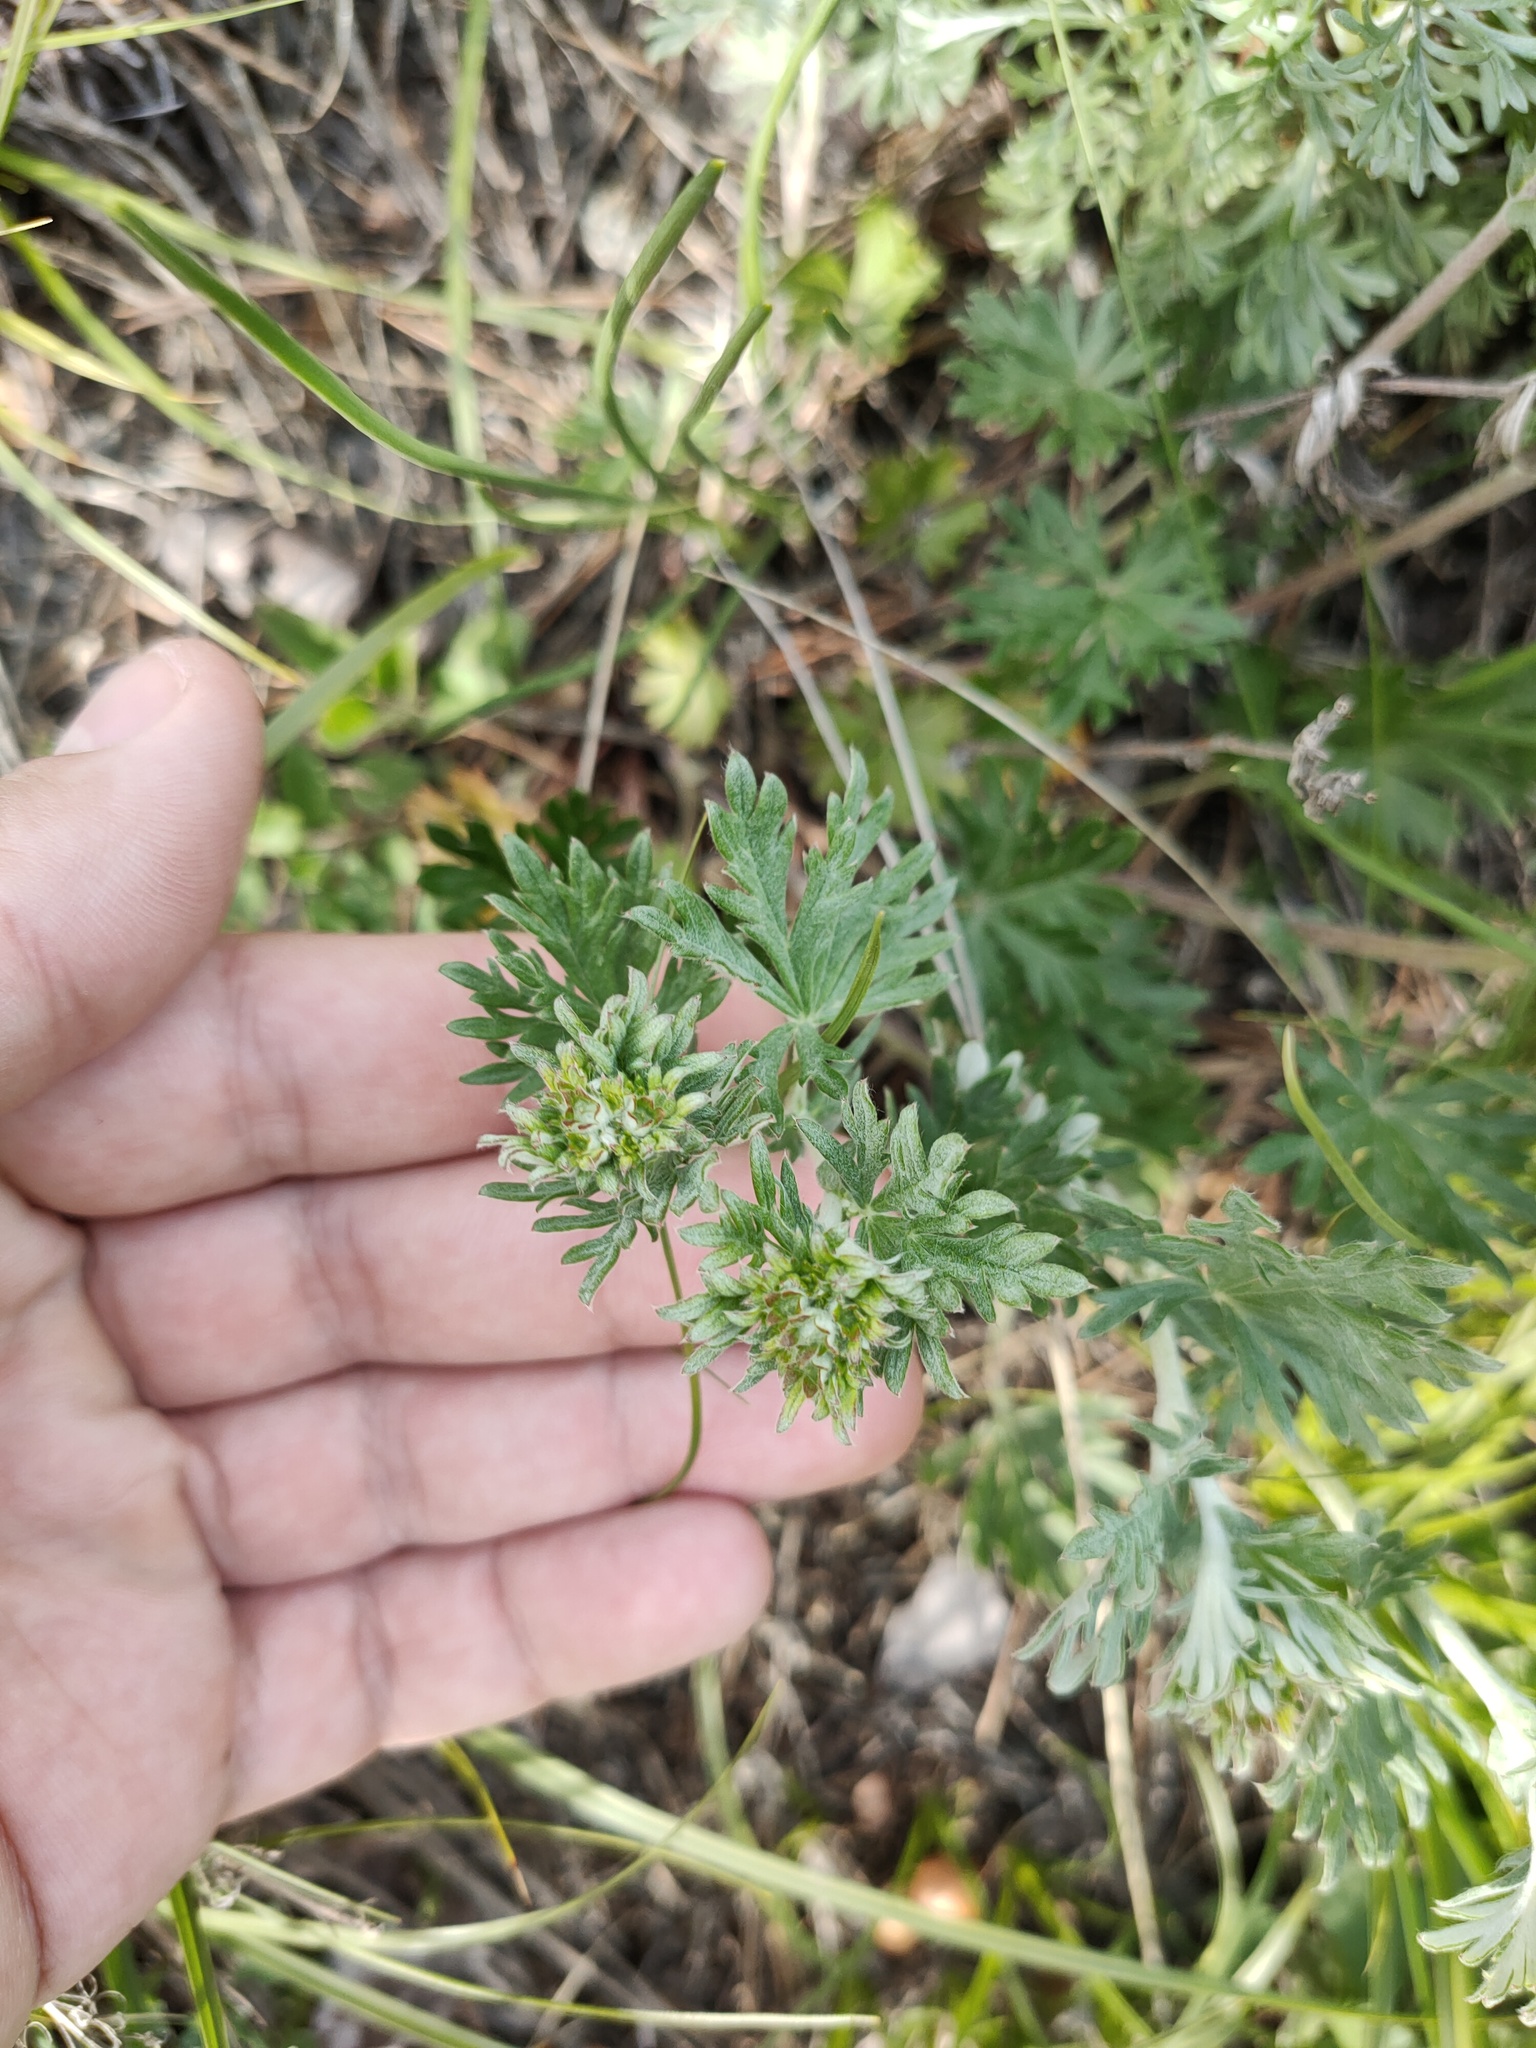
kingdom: Plantae
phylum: Tracheophyta
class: Magnoliopsida
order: Rosales
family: Rosaceae
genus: Potentilla
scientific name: Potentilla argentea
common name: Hoary cinquefoil
